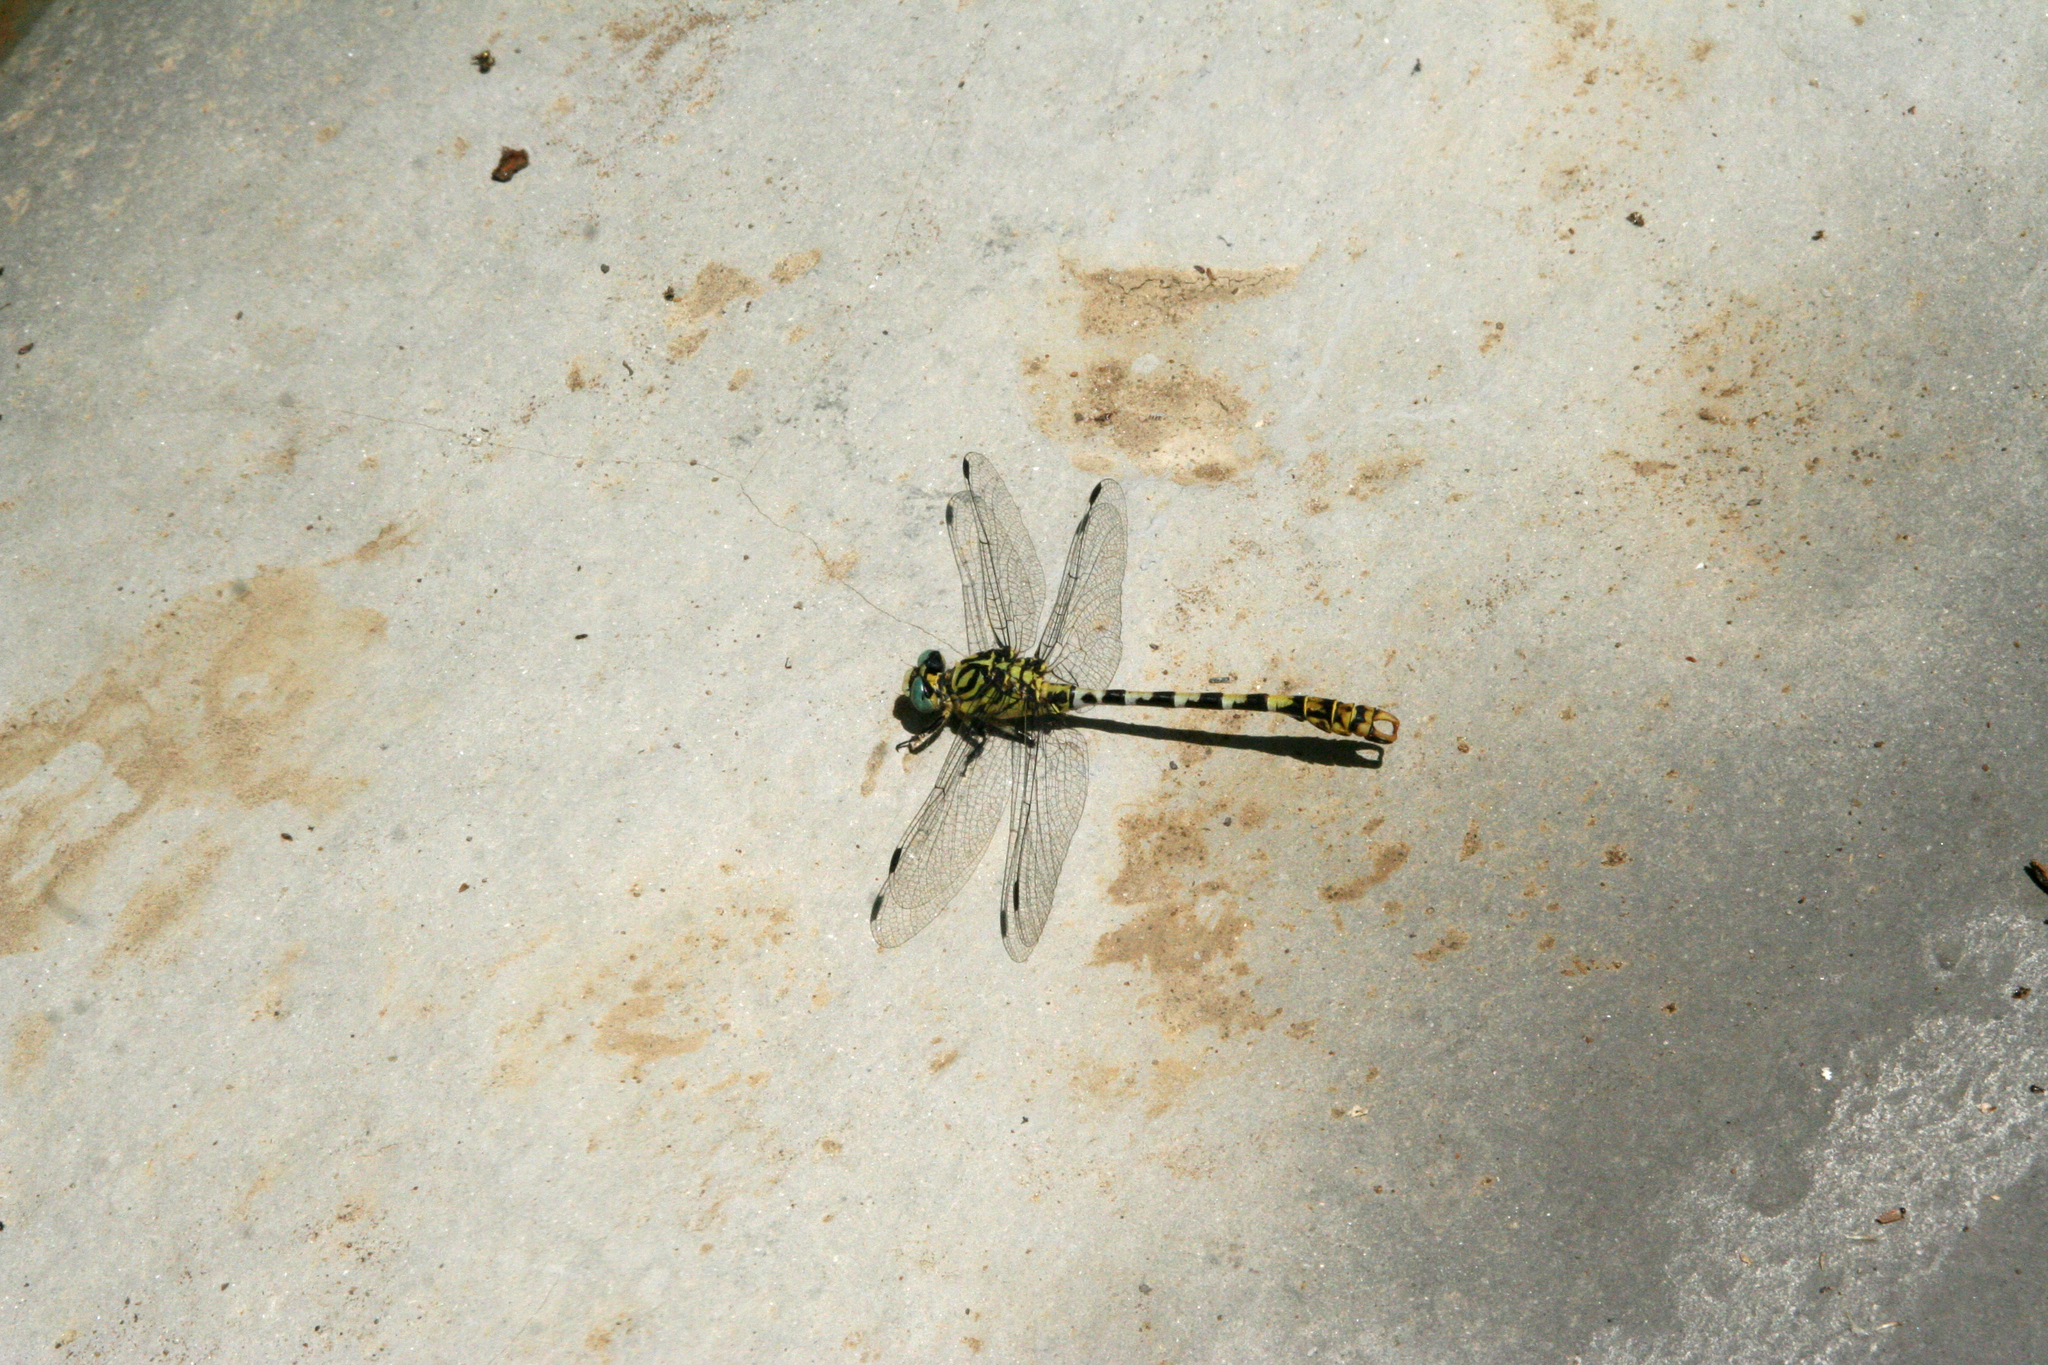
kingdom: Animalia
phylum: Arthropoda
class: Insecta
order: Odonata
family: Gomphidae
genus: Onychogomphus
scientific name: Onychogomphus forcipatus
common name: Small pincertail
